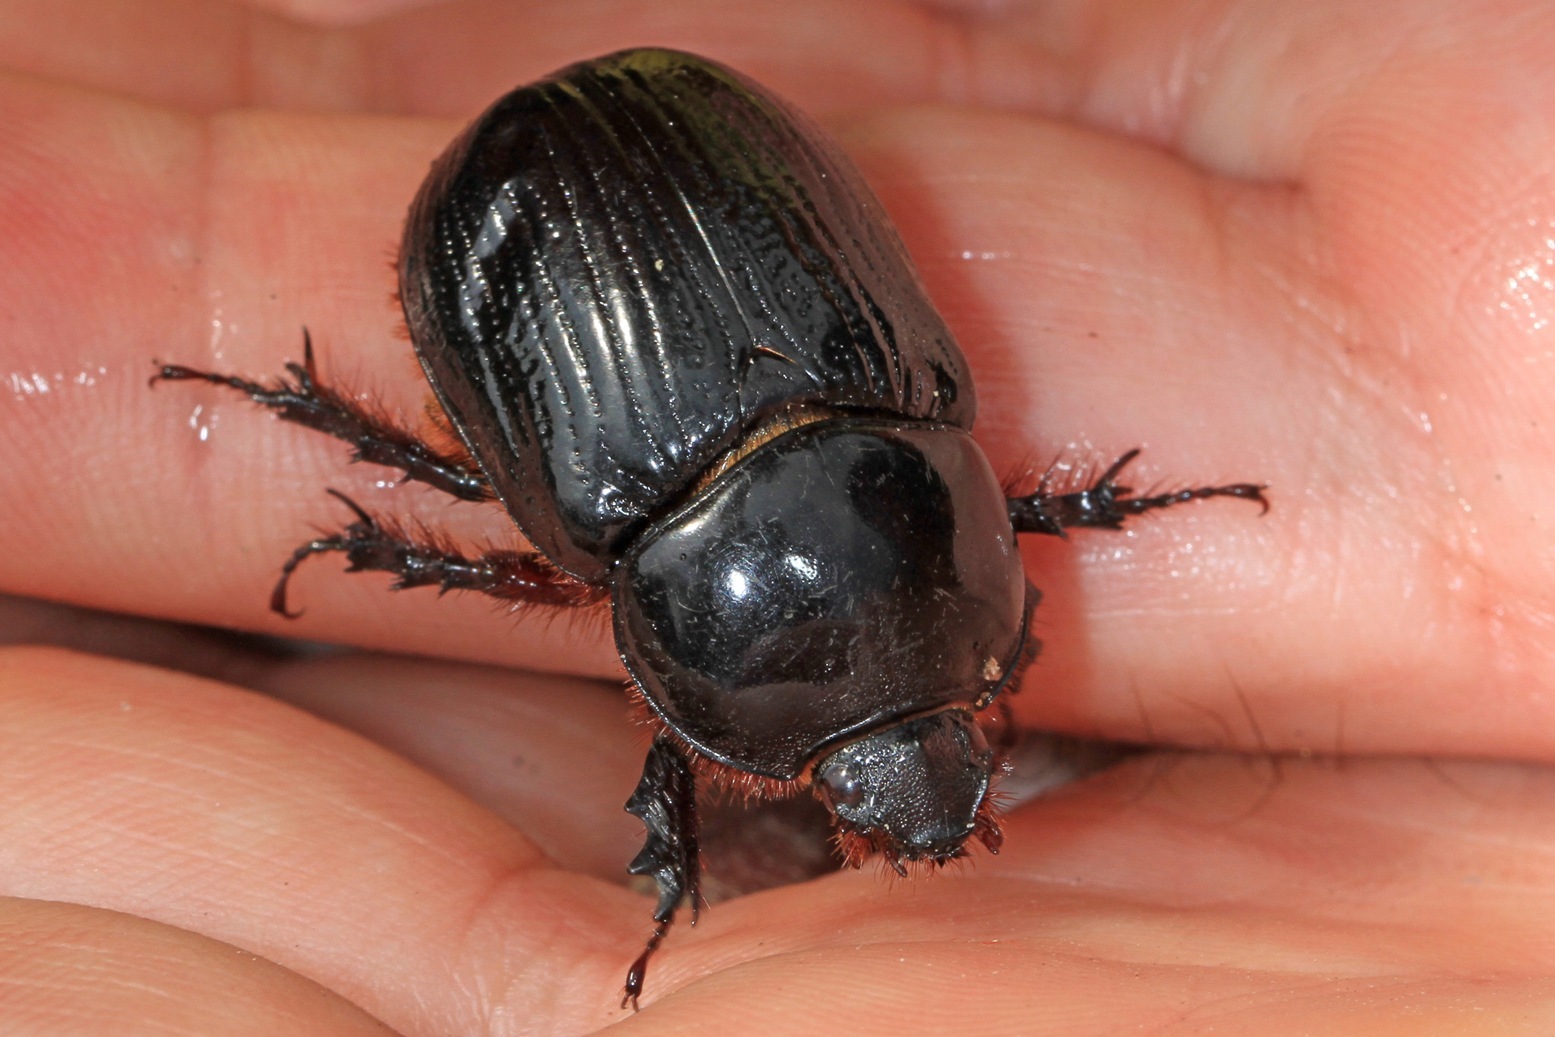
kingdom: Animalia
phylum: Arthropoda
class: Insecta
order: Coleoptera
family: Scarabaeidae
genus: Xyloryctes
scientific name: Xyloryctes jamaicensis
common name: Eastern rhinoceros beetle
